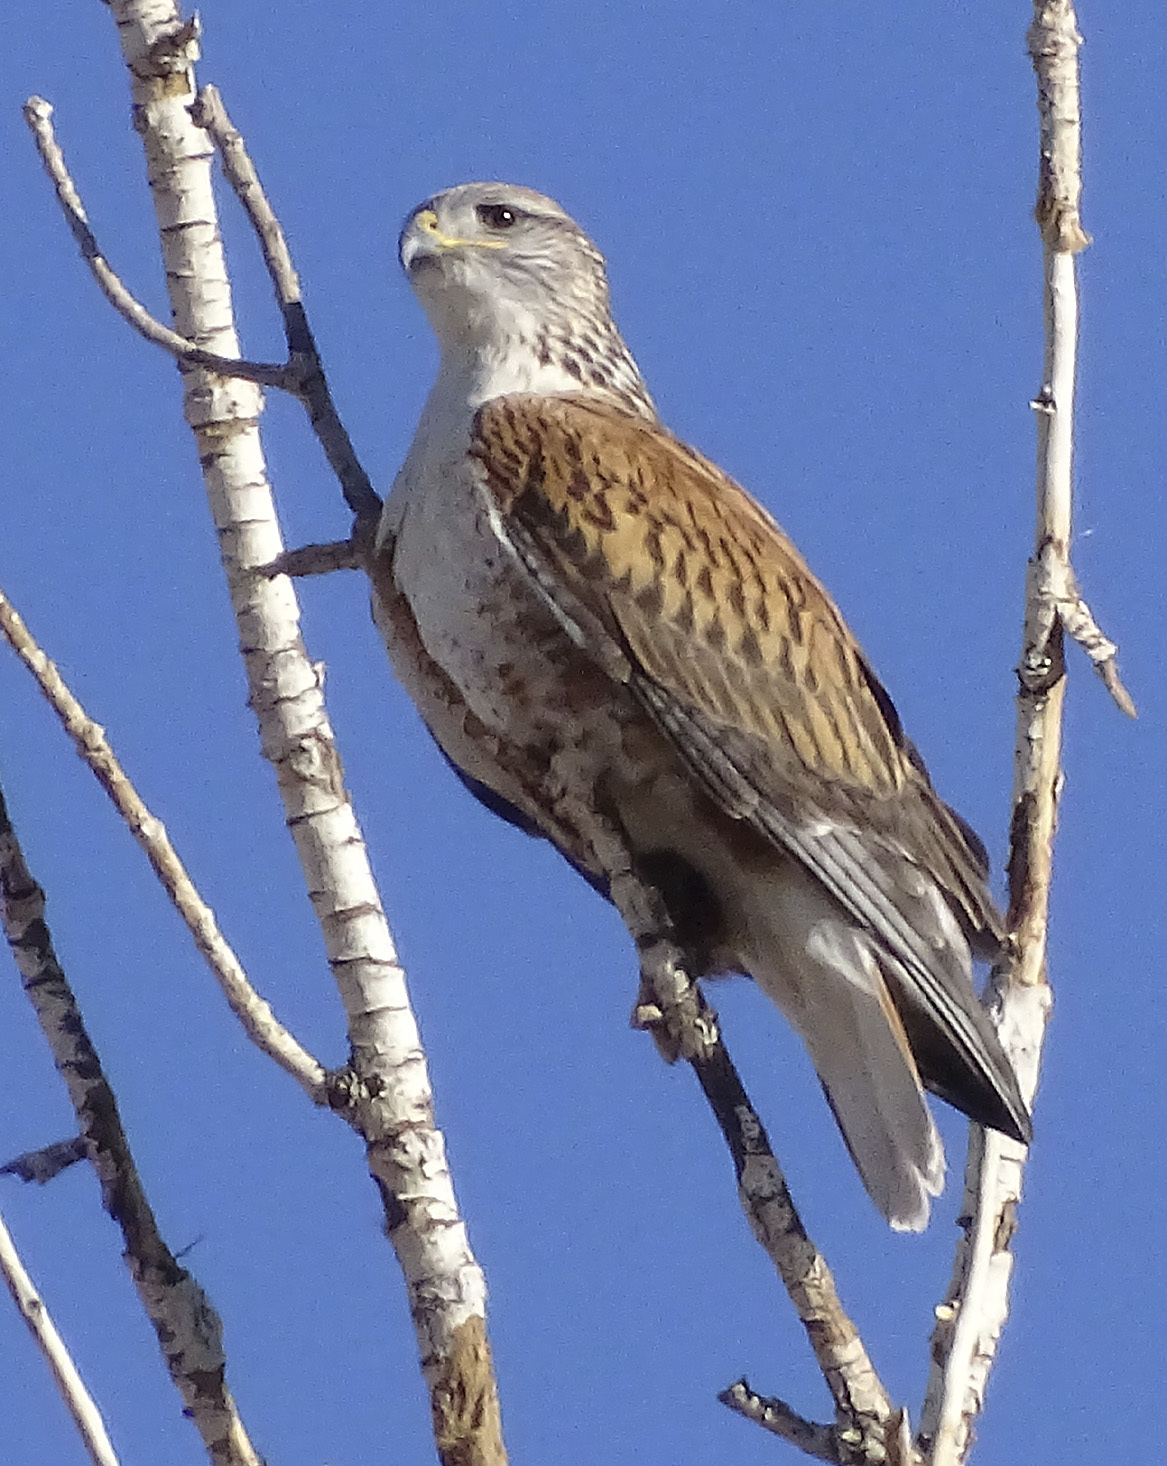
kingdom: Animalia
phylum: Chordata
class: Aves
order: Accipitriformes
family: Accipitridae
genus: Buteo
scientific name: Buteo regalis
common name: Ferruginous hawk
